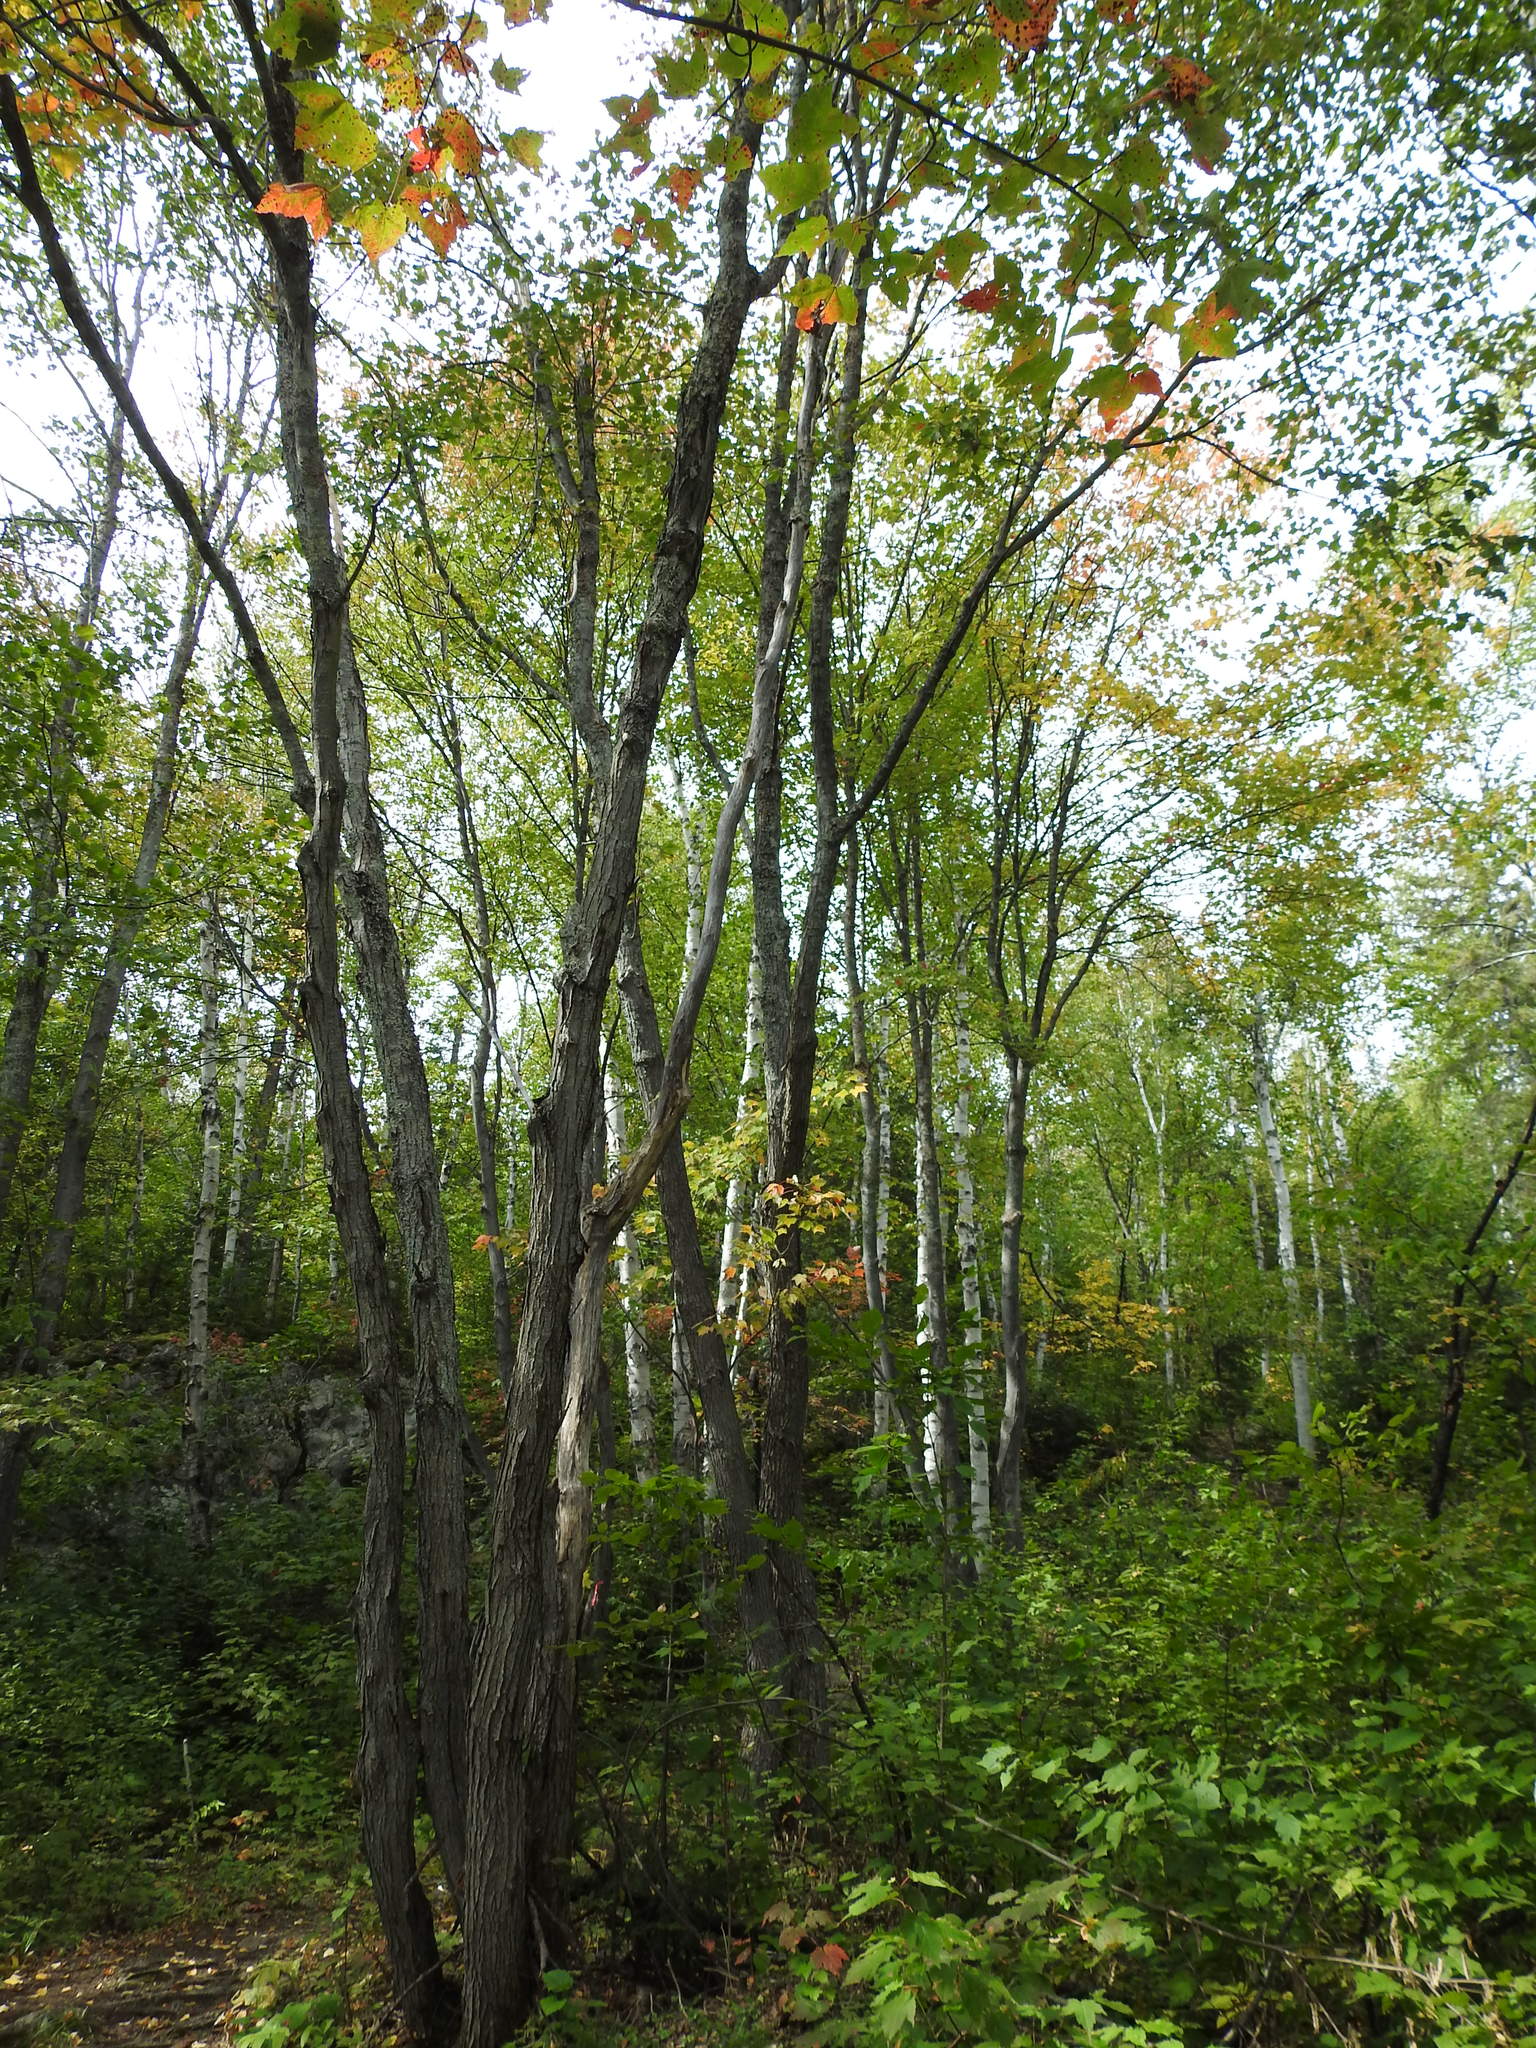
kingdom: Plantae
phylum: Tracheophyta
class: Magnoliopsida
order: Sapindales
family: Sapindaceae
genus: Acer
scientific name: Acer rubrum
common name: Red maple
